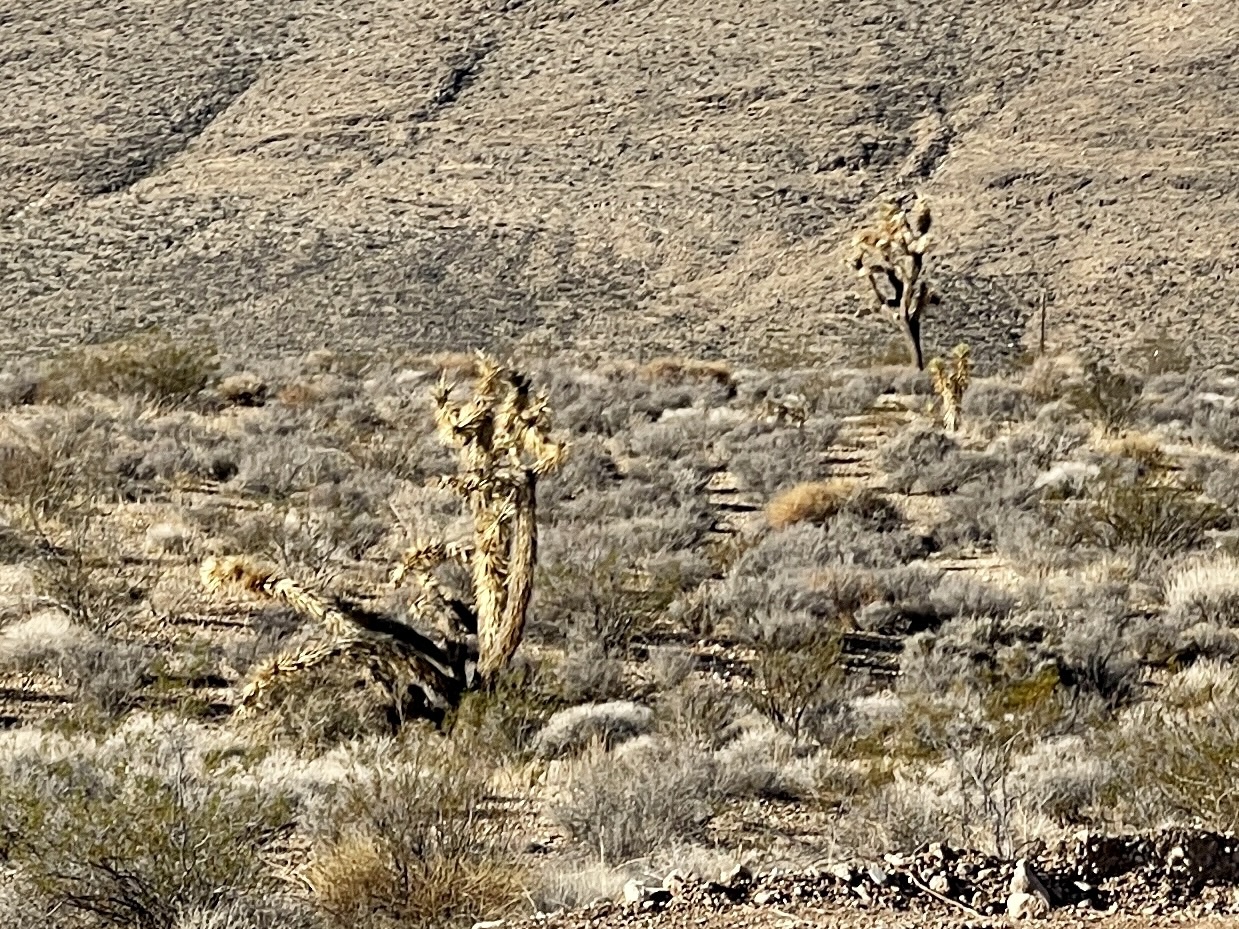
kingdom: Plantae
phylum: Tracheophyta
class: Liliopsida
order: Asparagales
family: Asparagaceae
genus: Yucca
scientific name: Yucca brevifolia
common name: Joshua tree
